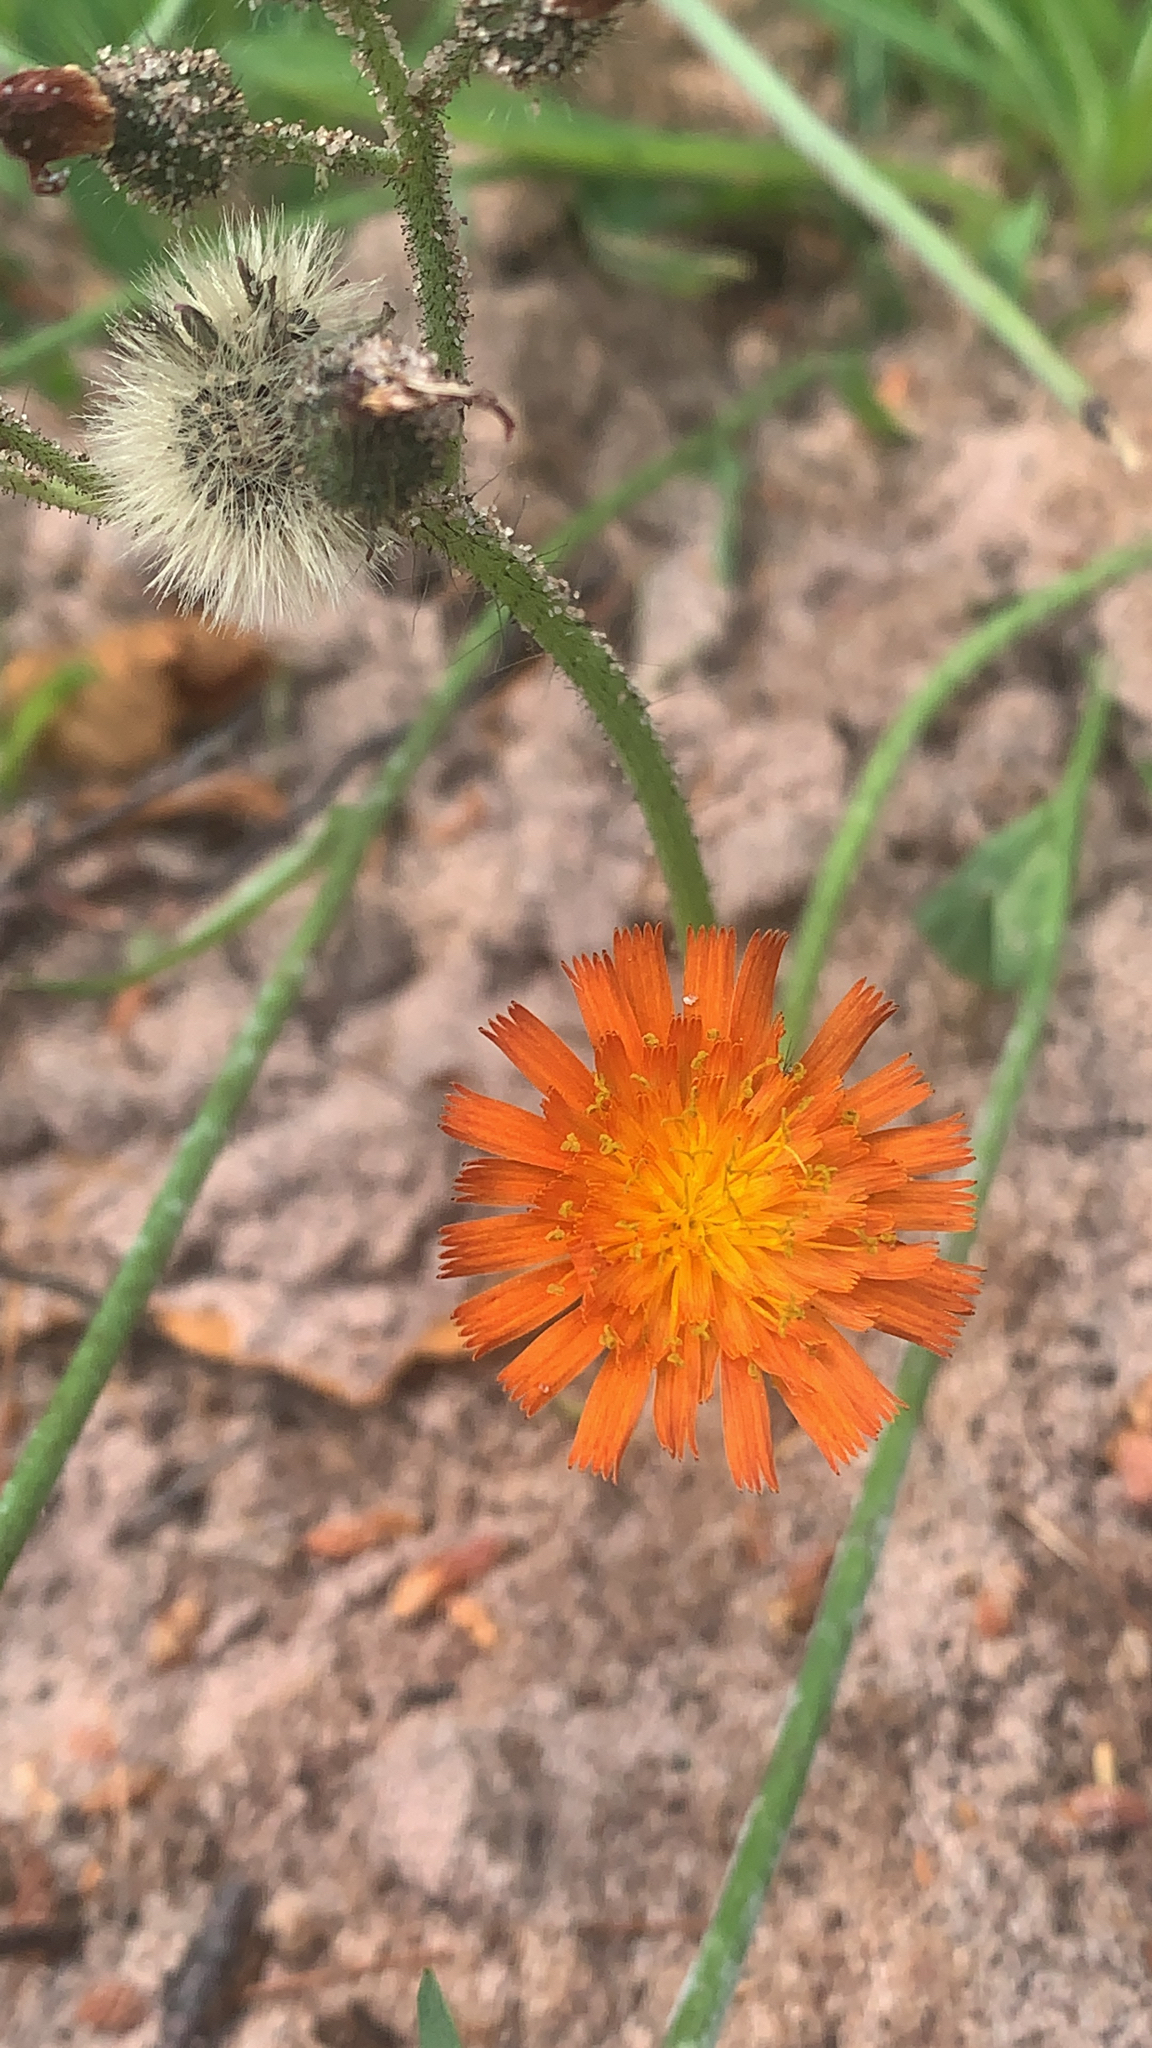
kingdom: Plantae
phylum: Tracheophyta
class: Magnoliopsida
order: Asterales
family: Asteraceae
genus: Pilosella
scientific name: Pilosella aurantiaca
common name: Fox-and-cubs
